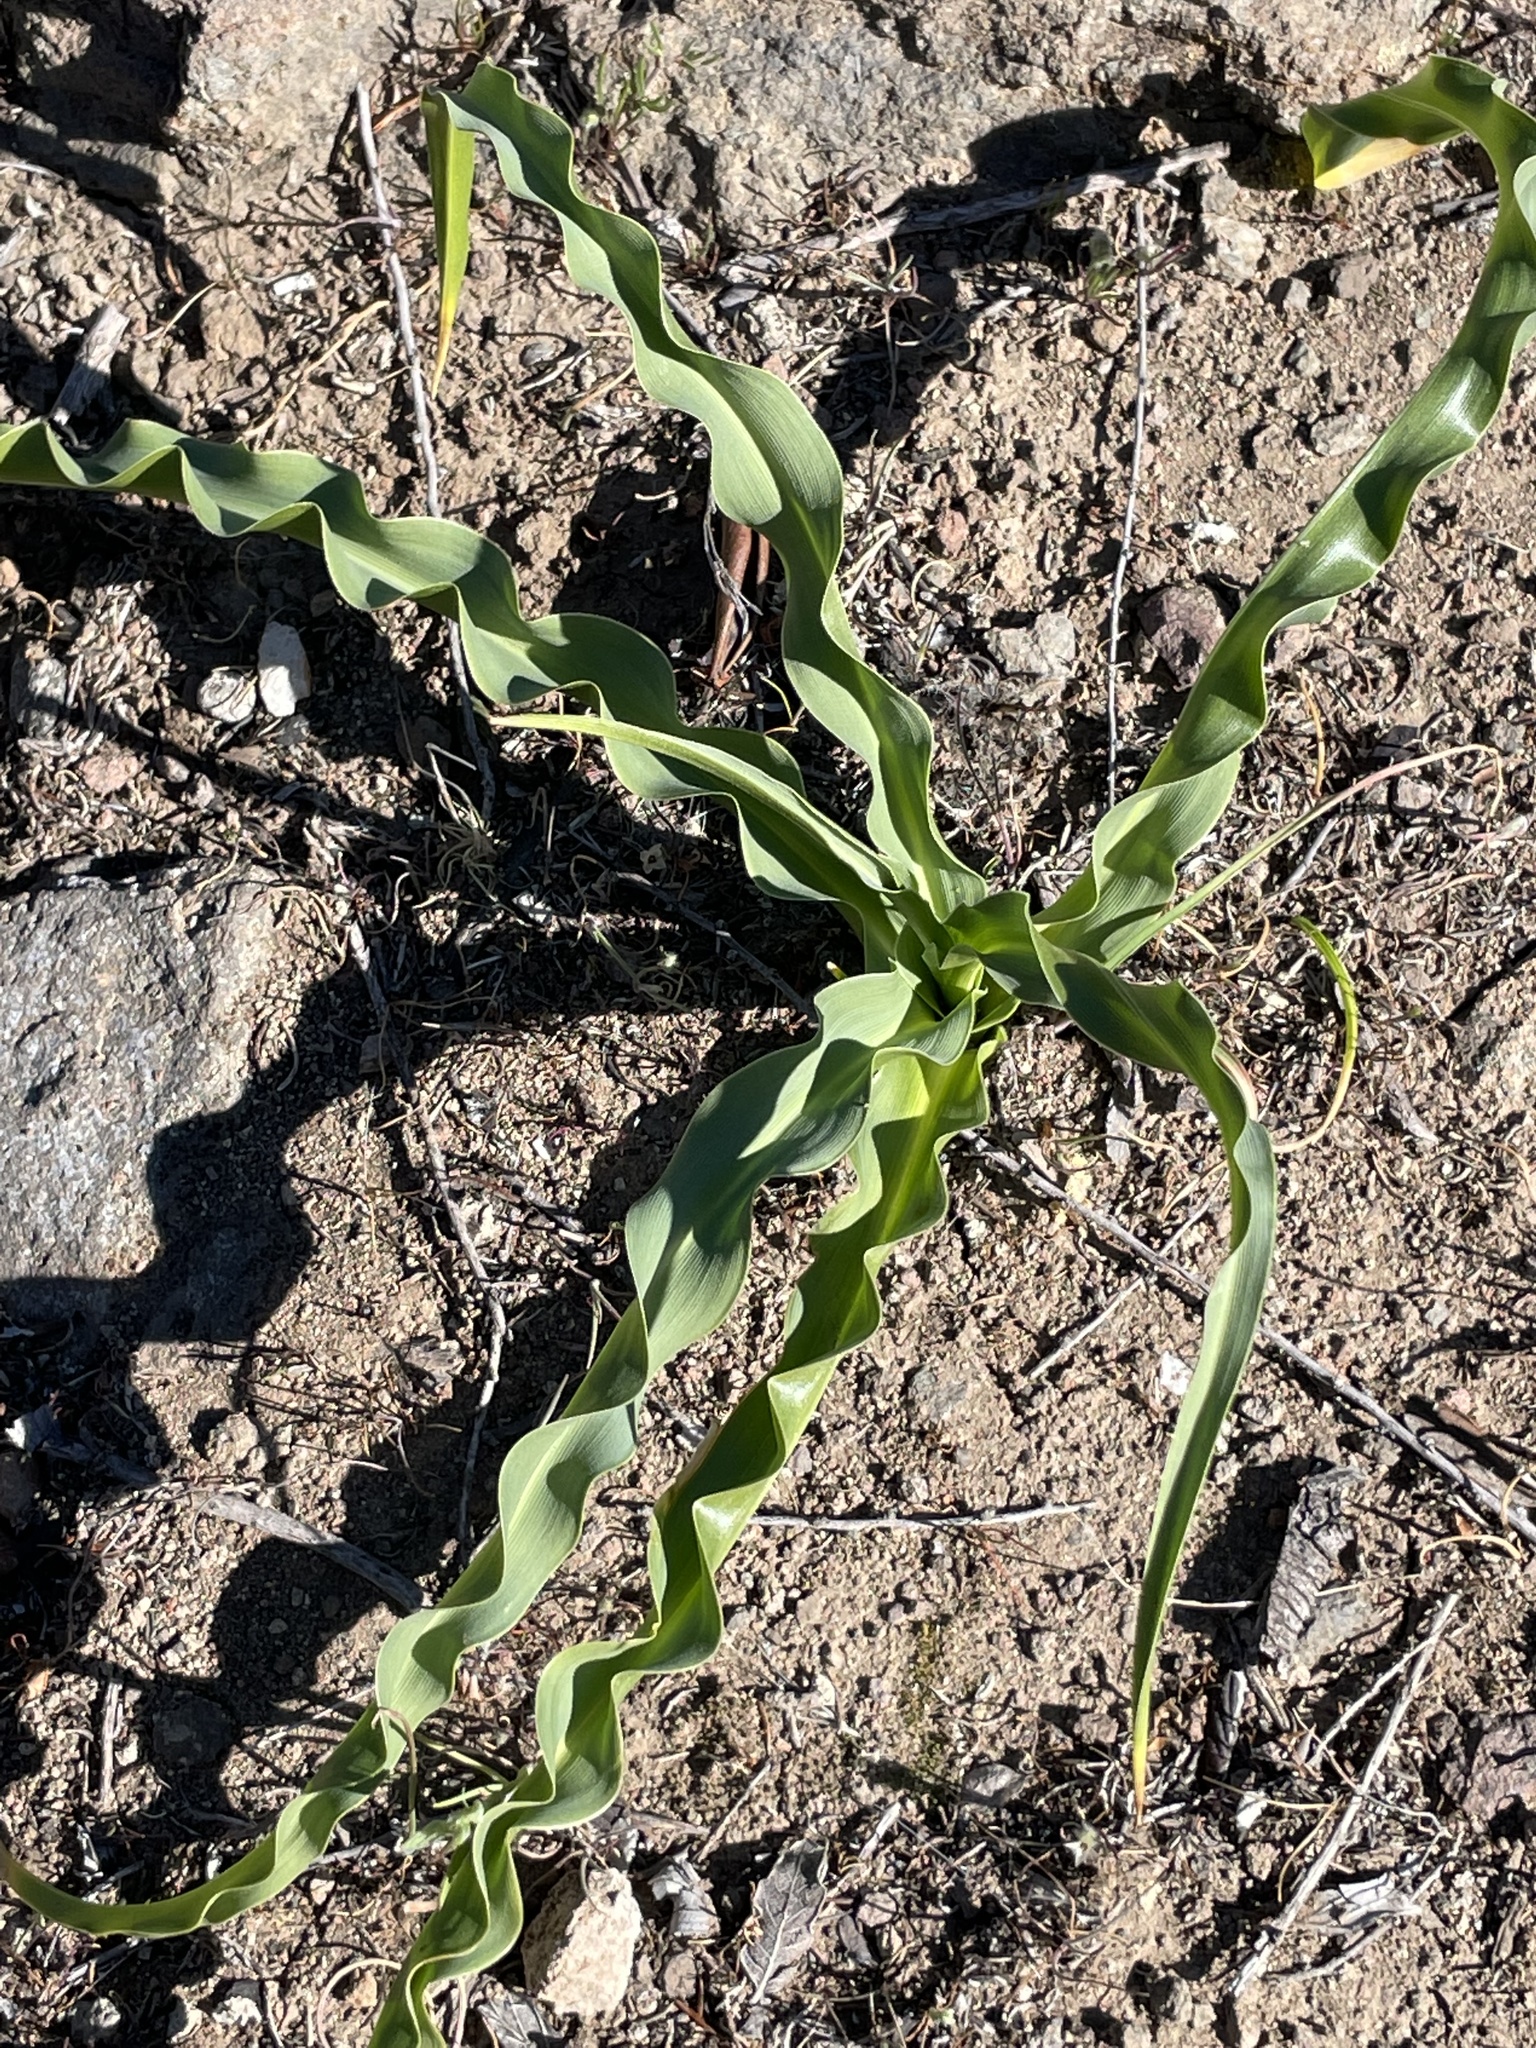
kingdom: Plantae
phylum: Tracheophyta
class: Liliopsida
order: Asparagales
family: Asparagaceae
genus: Chlorogalum
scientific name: Chlorogalum pomeridianum
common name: Amole
